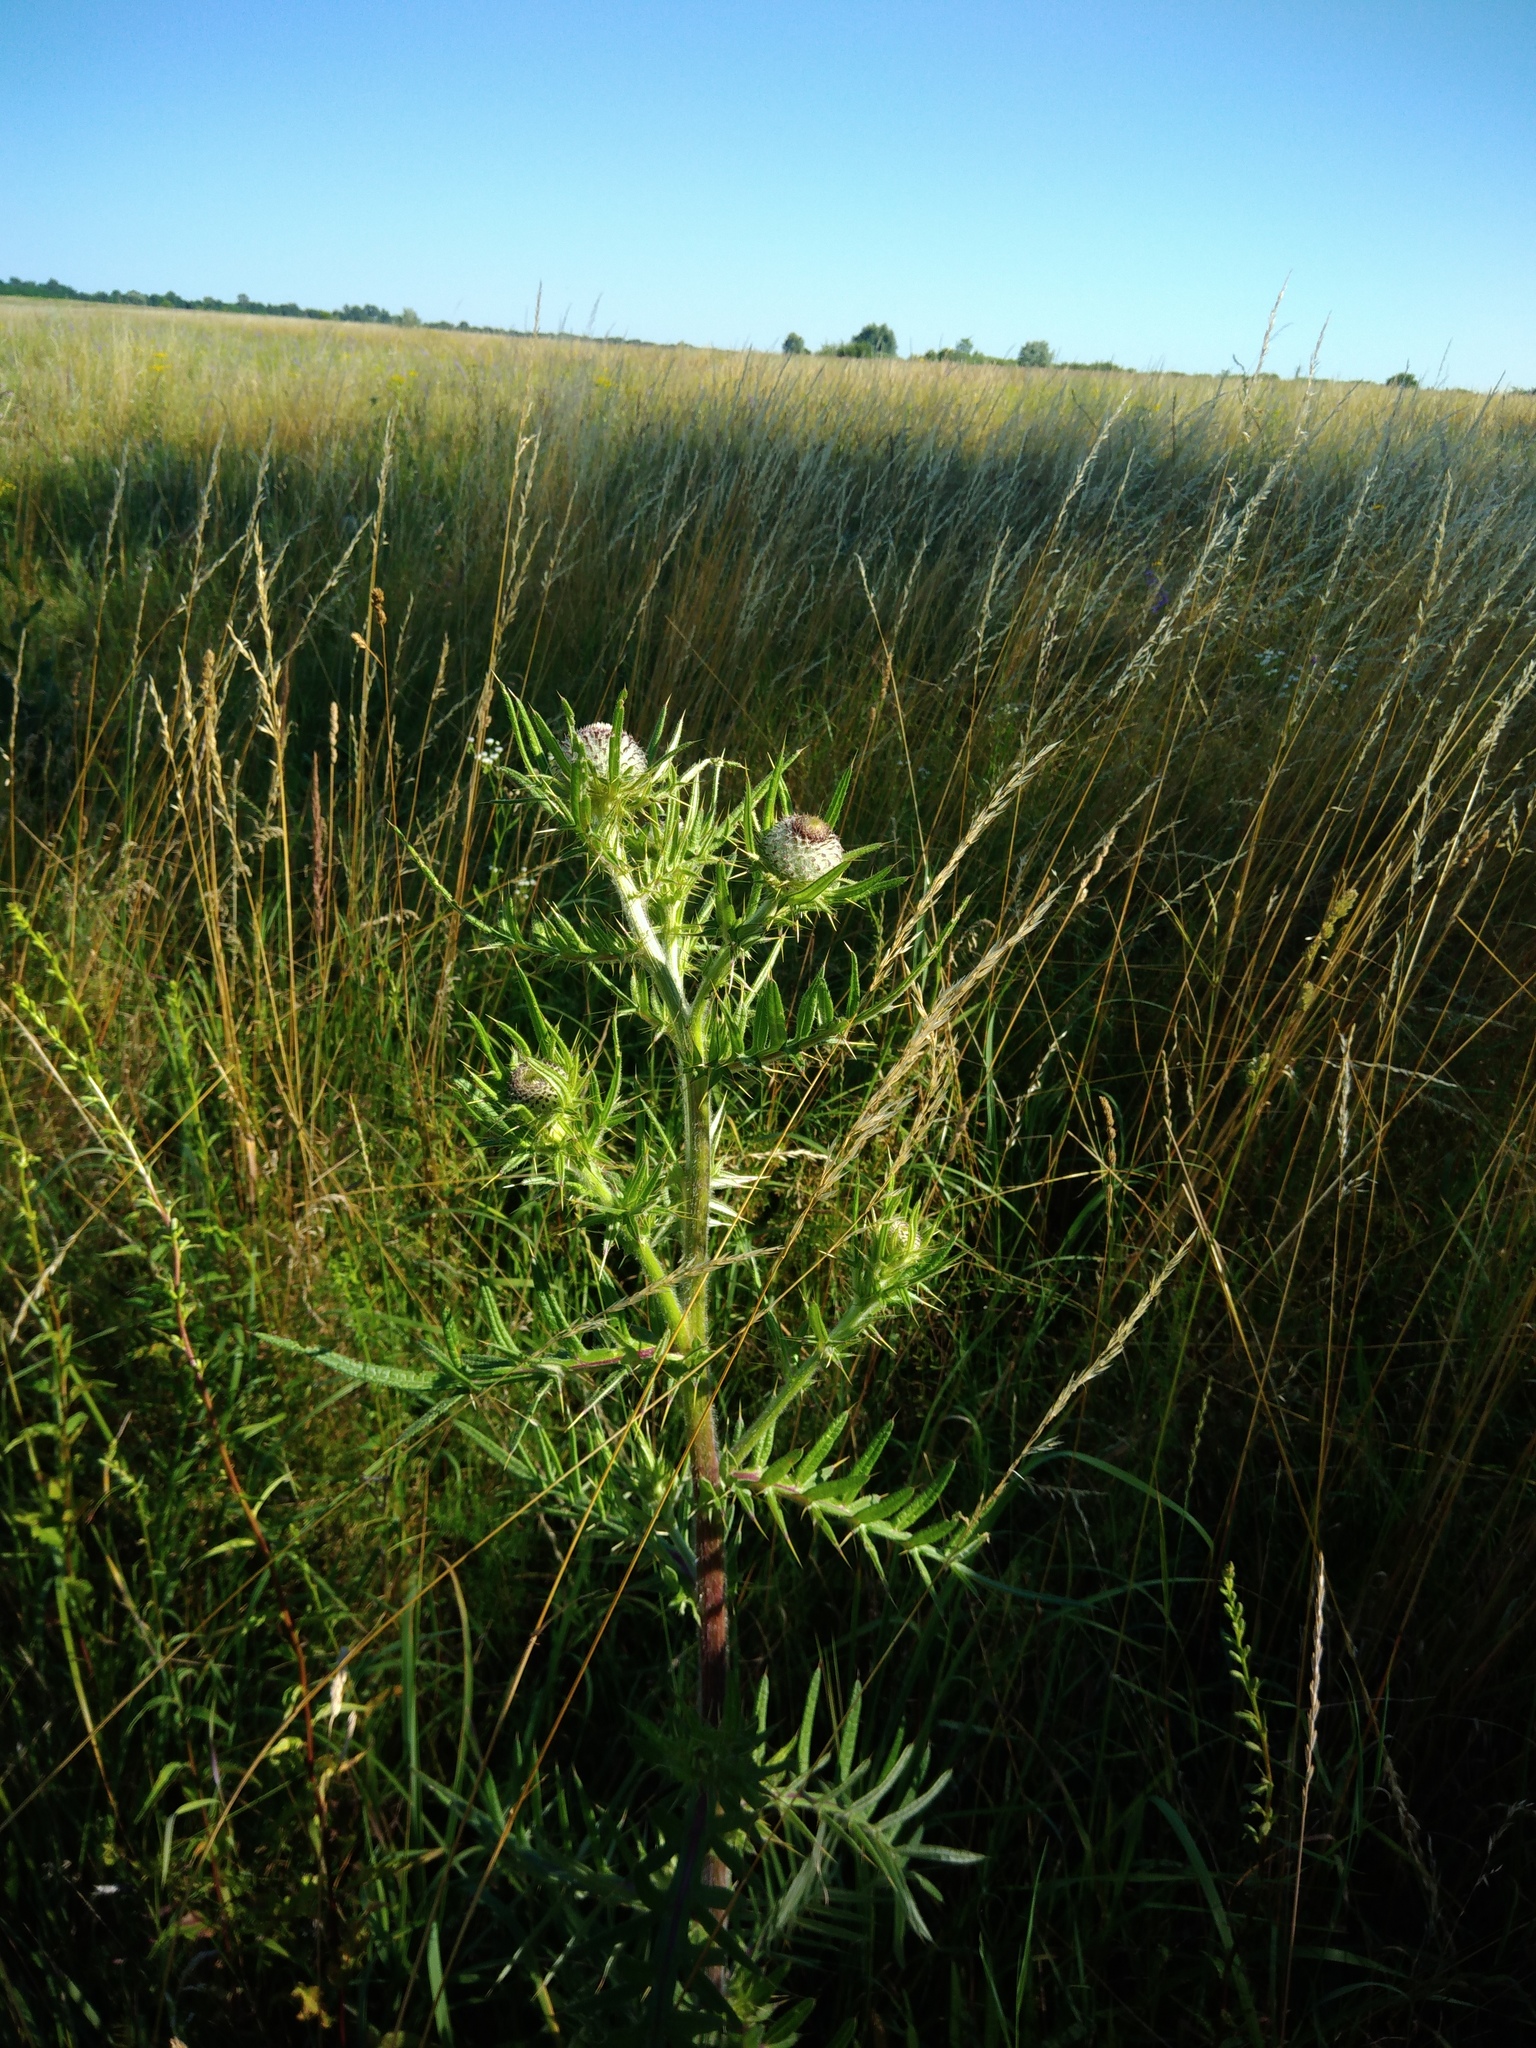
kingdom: Plantae
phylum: Tracheophyta
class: Magnoliopsida
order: Asterales
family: Asteraceae
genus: Lophiolepis
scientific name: Lophiolepis decussata
